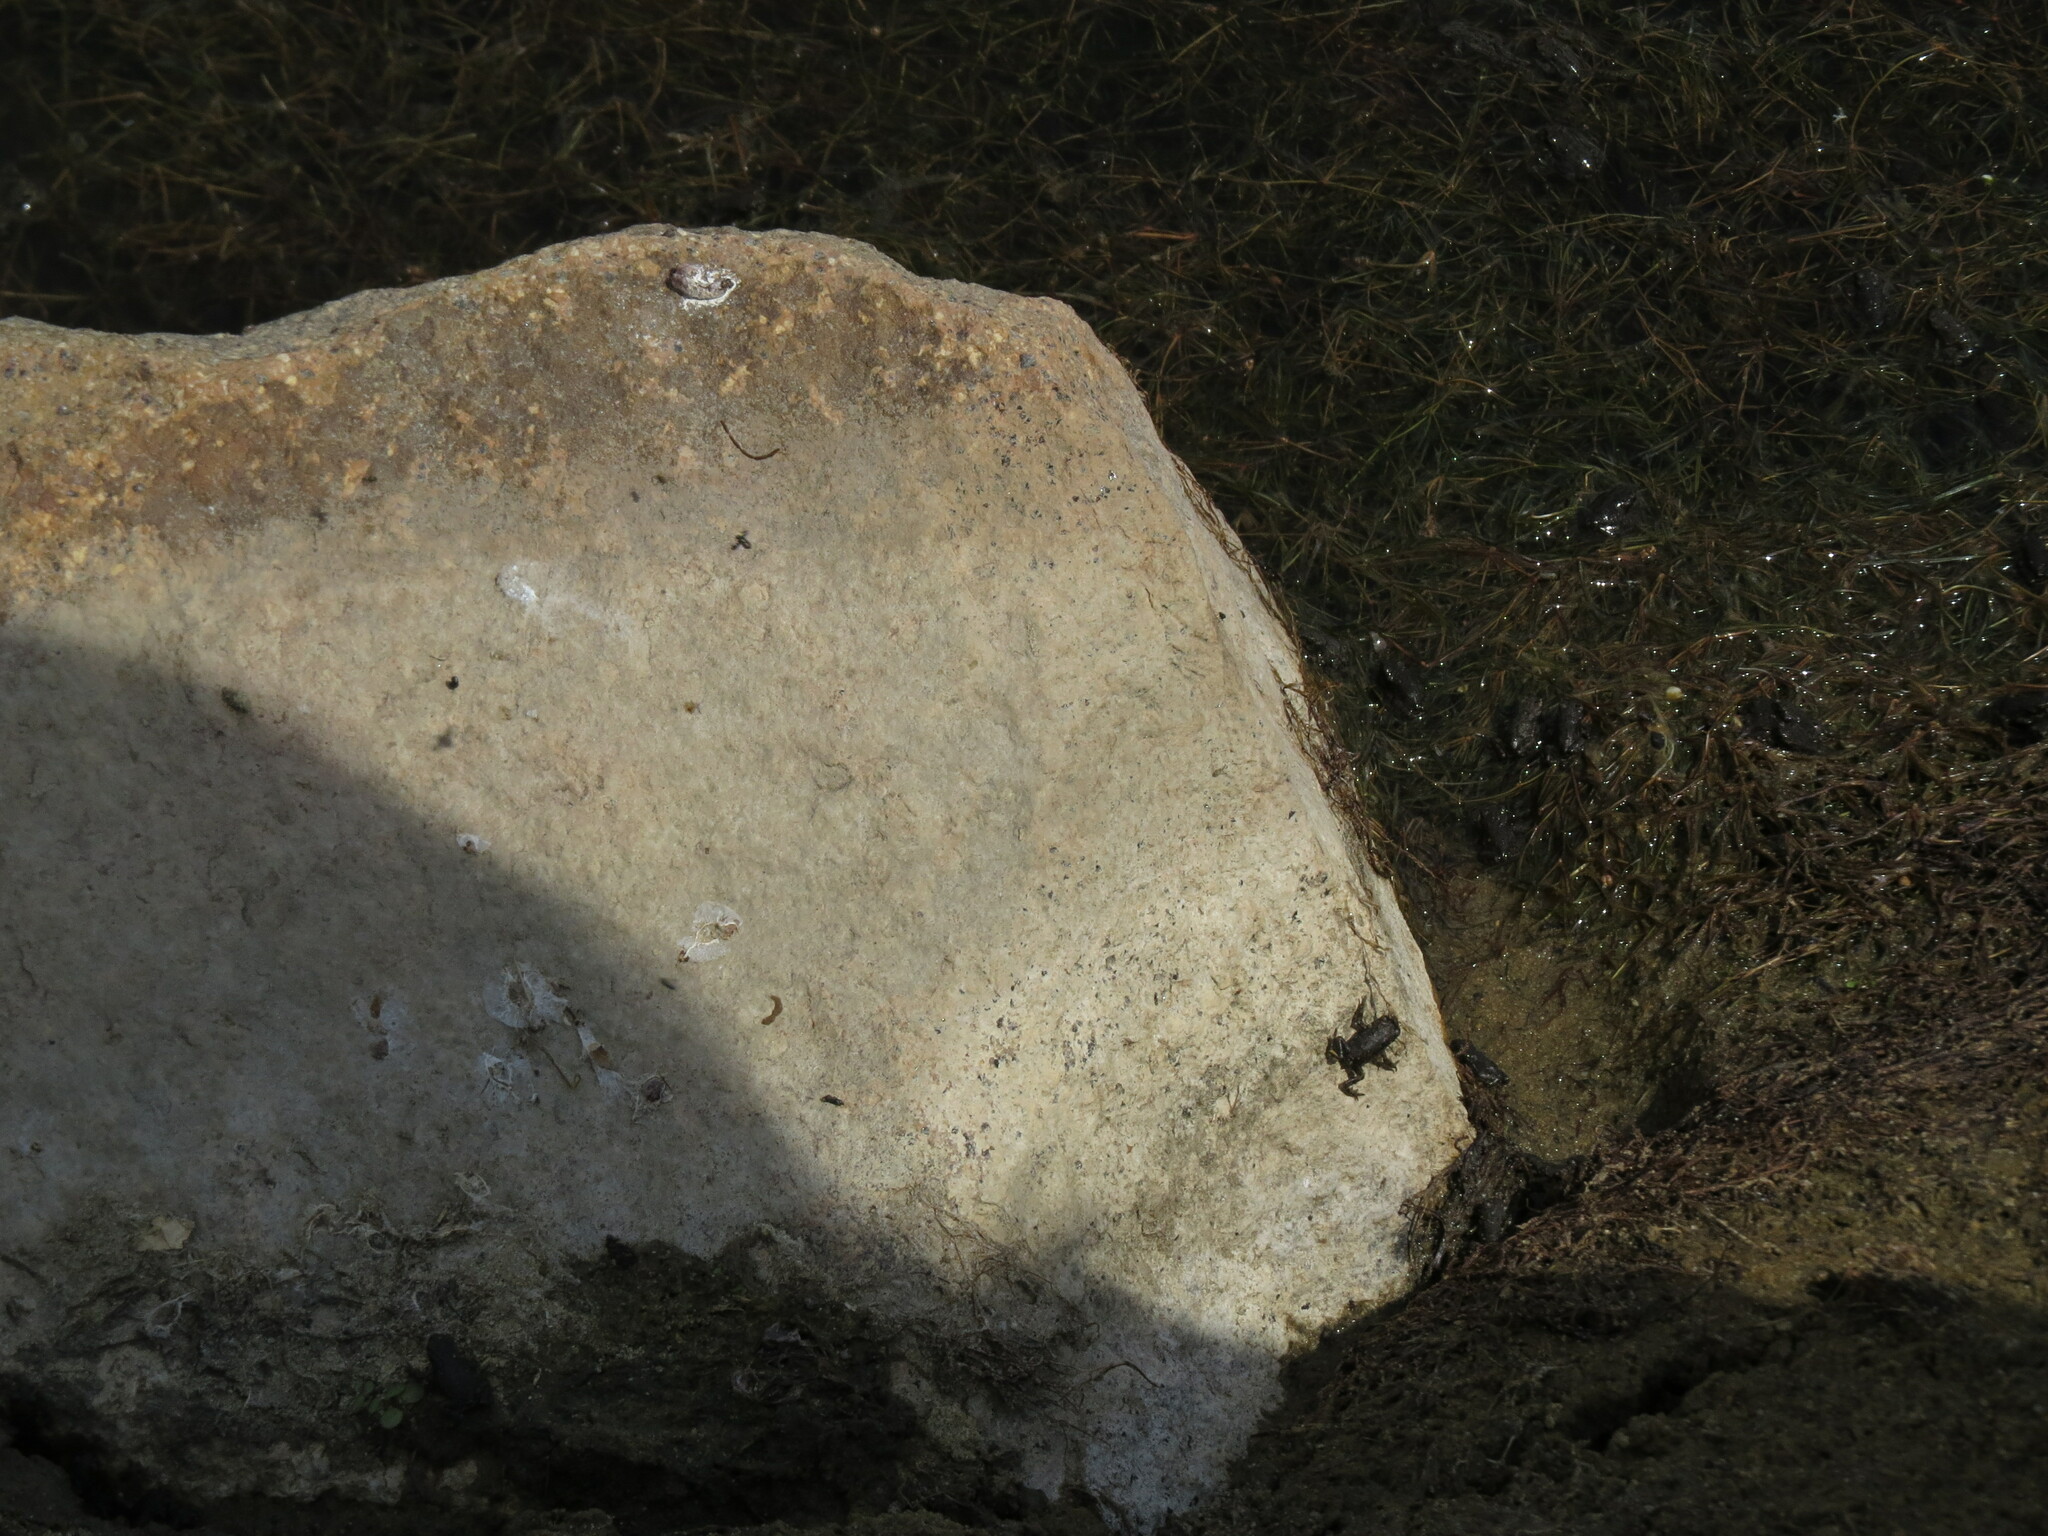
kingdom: Animalia
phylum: Chordata
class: Amphibia
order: Anura
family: Bufonidae
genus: Bufotes
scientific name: Bufotes viridis
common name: European green toad
